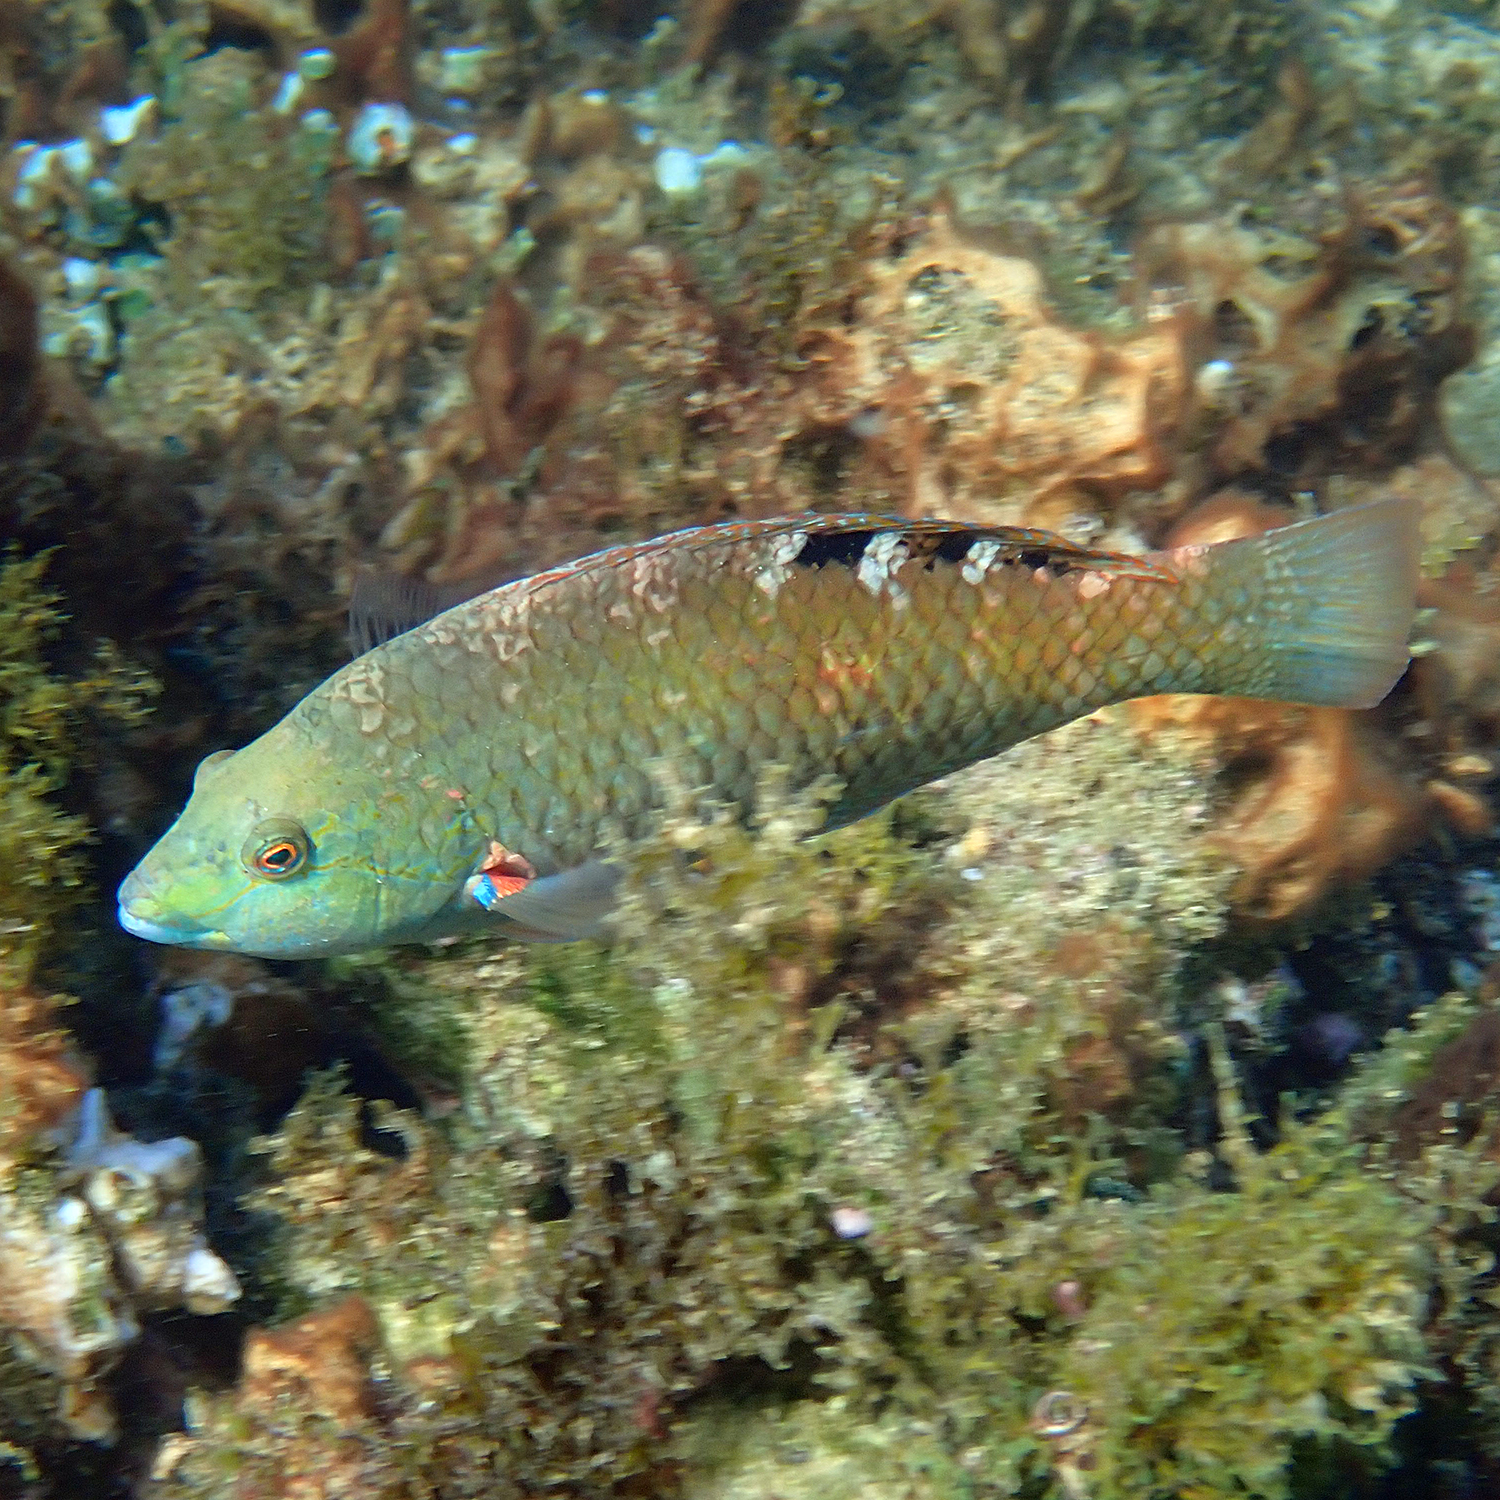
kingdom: Animalia
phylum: Chordata
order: Perciformes
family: Labridae
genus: Pseudolabrus
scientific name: Pseudolabrus luculentus
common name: Luculentus wrasse
